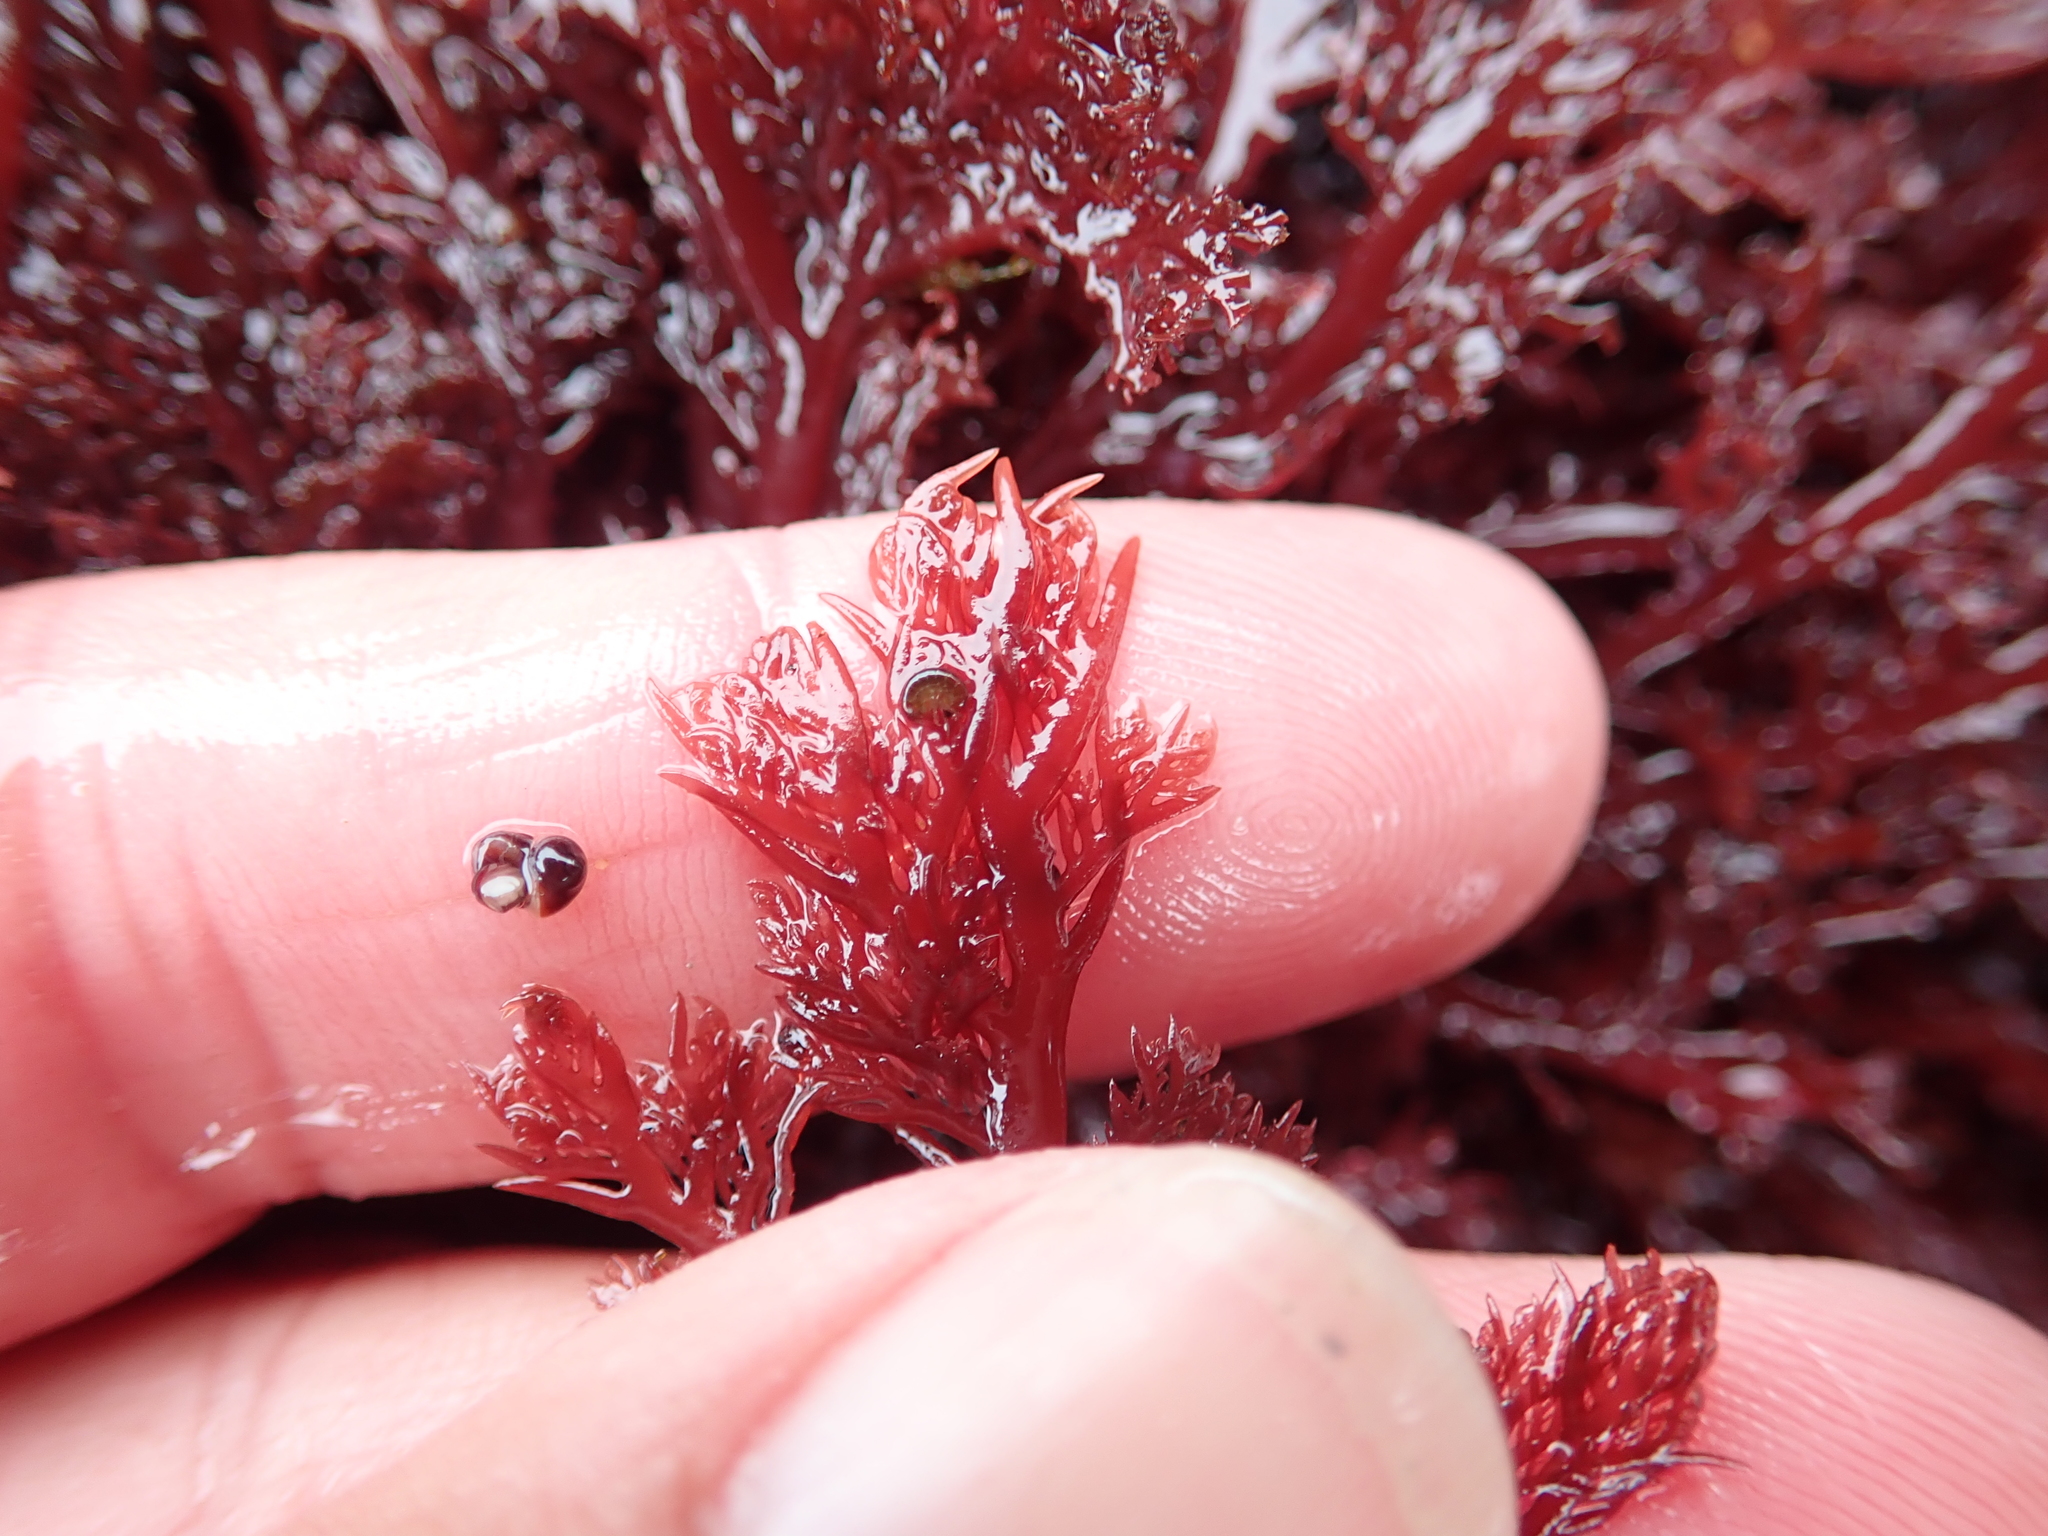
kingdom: Plantae
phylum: Rhodophyta
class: Florideophyceae
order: Plocamiales
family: Plocamiaceae
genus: Plocamium
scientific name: Plocamium cartilagineum
